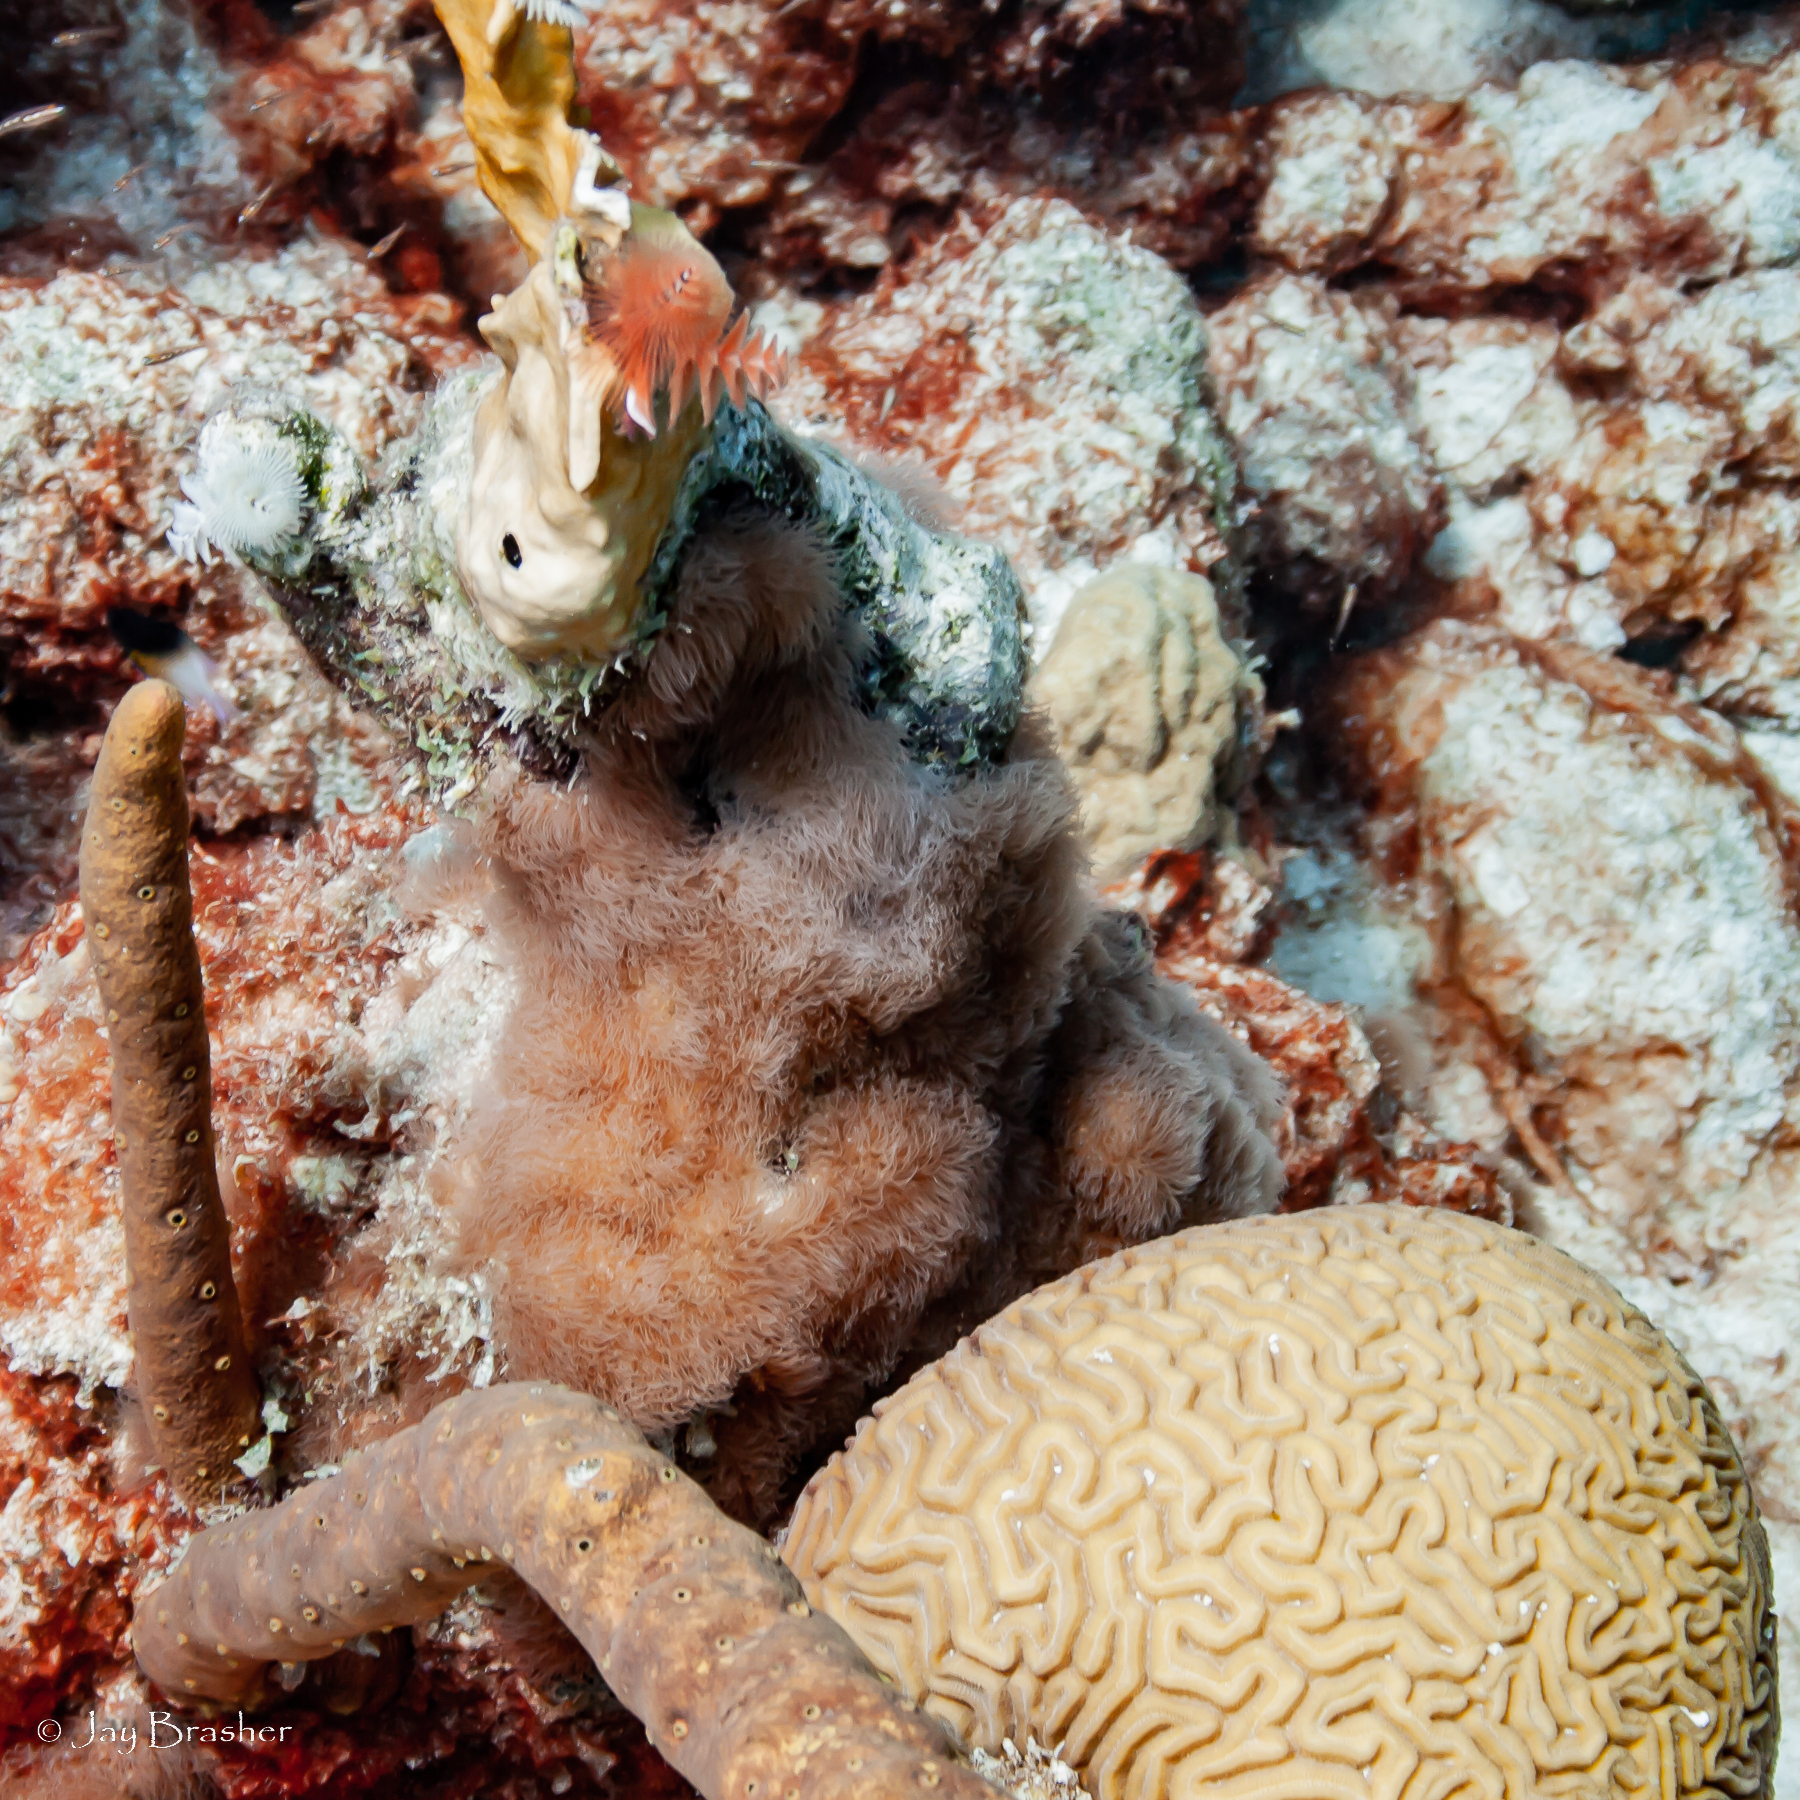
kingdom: Animalia
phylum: Cnidaria
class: Anthozoa
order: Scleractinia
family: Faviidae
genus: Diploria
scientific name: Diploria labyrinthiformis
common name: Grooved brain coral
